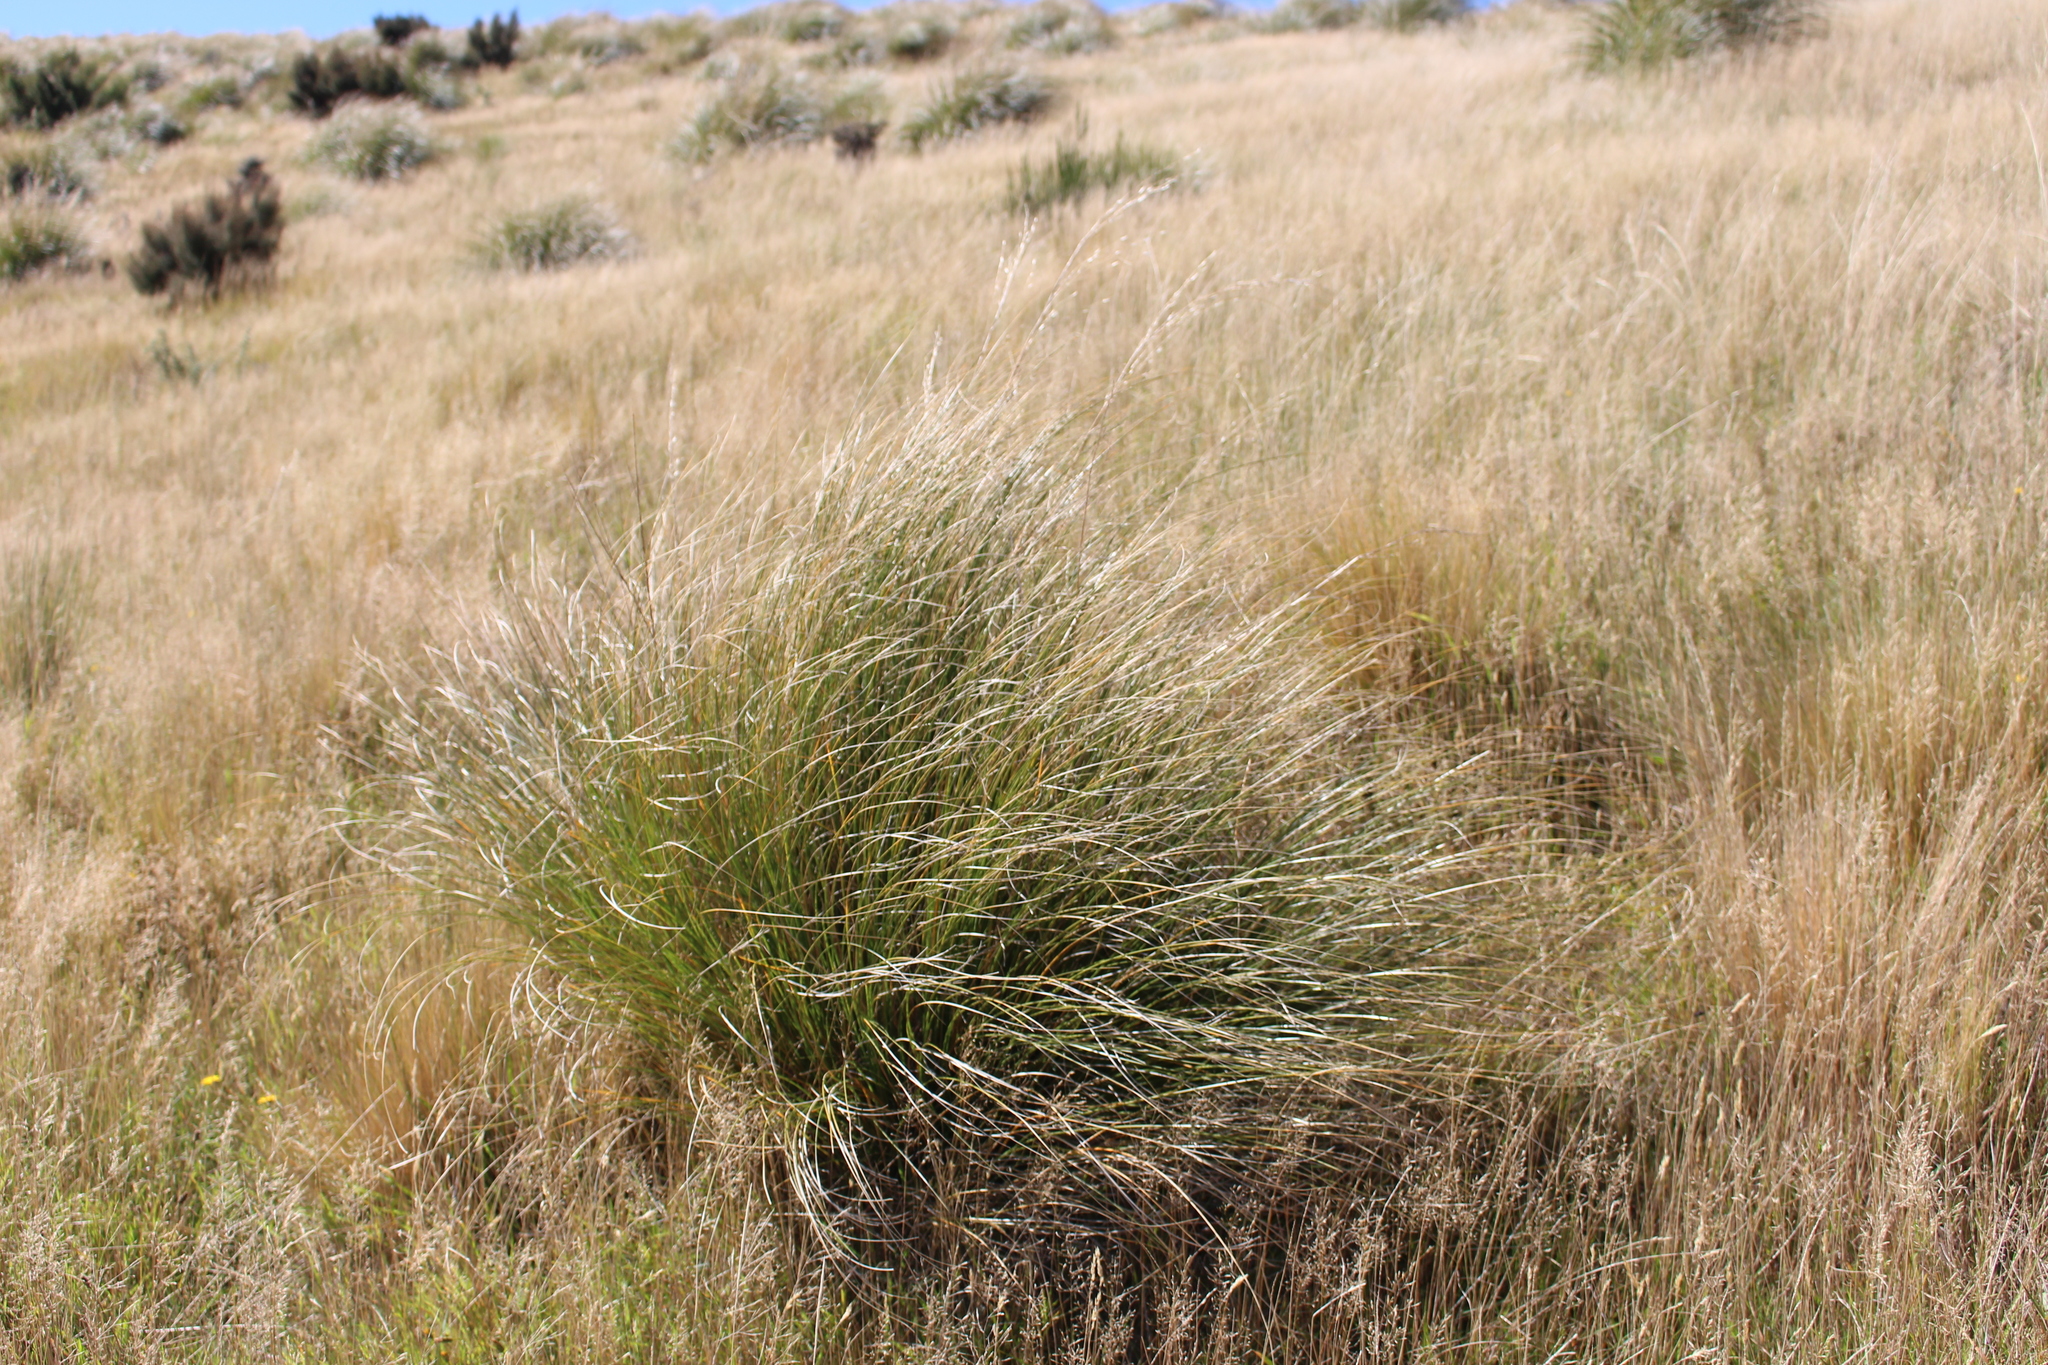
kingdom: Plantae
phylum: Tracheophyta
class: Liliopsida
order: Poales
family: Poaceae
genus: Chionochloa
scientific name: Chionochloa rigida
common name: Narrow leaved snow tussock
